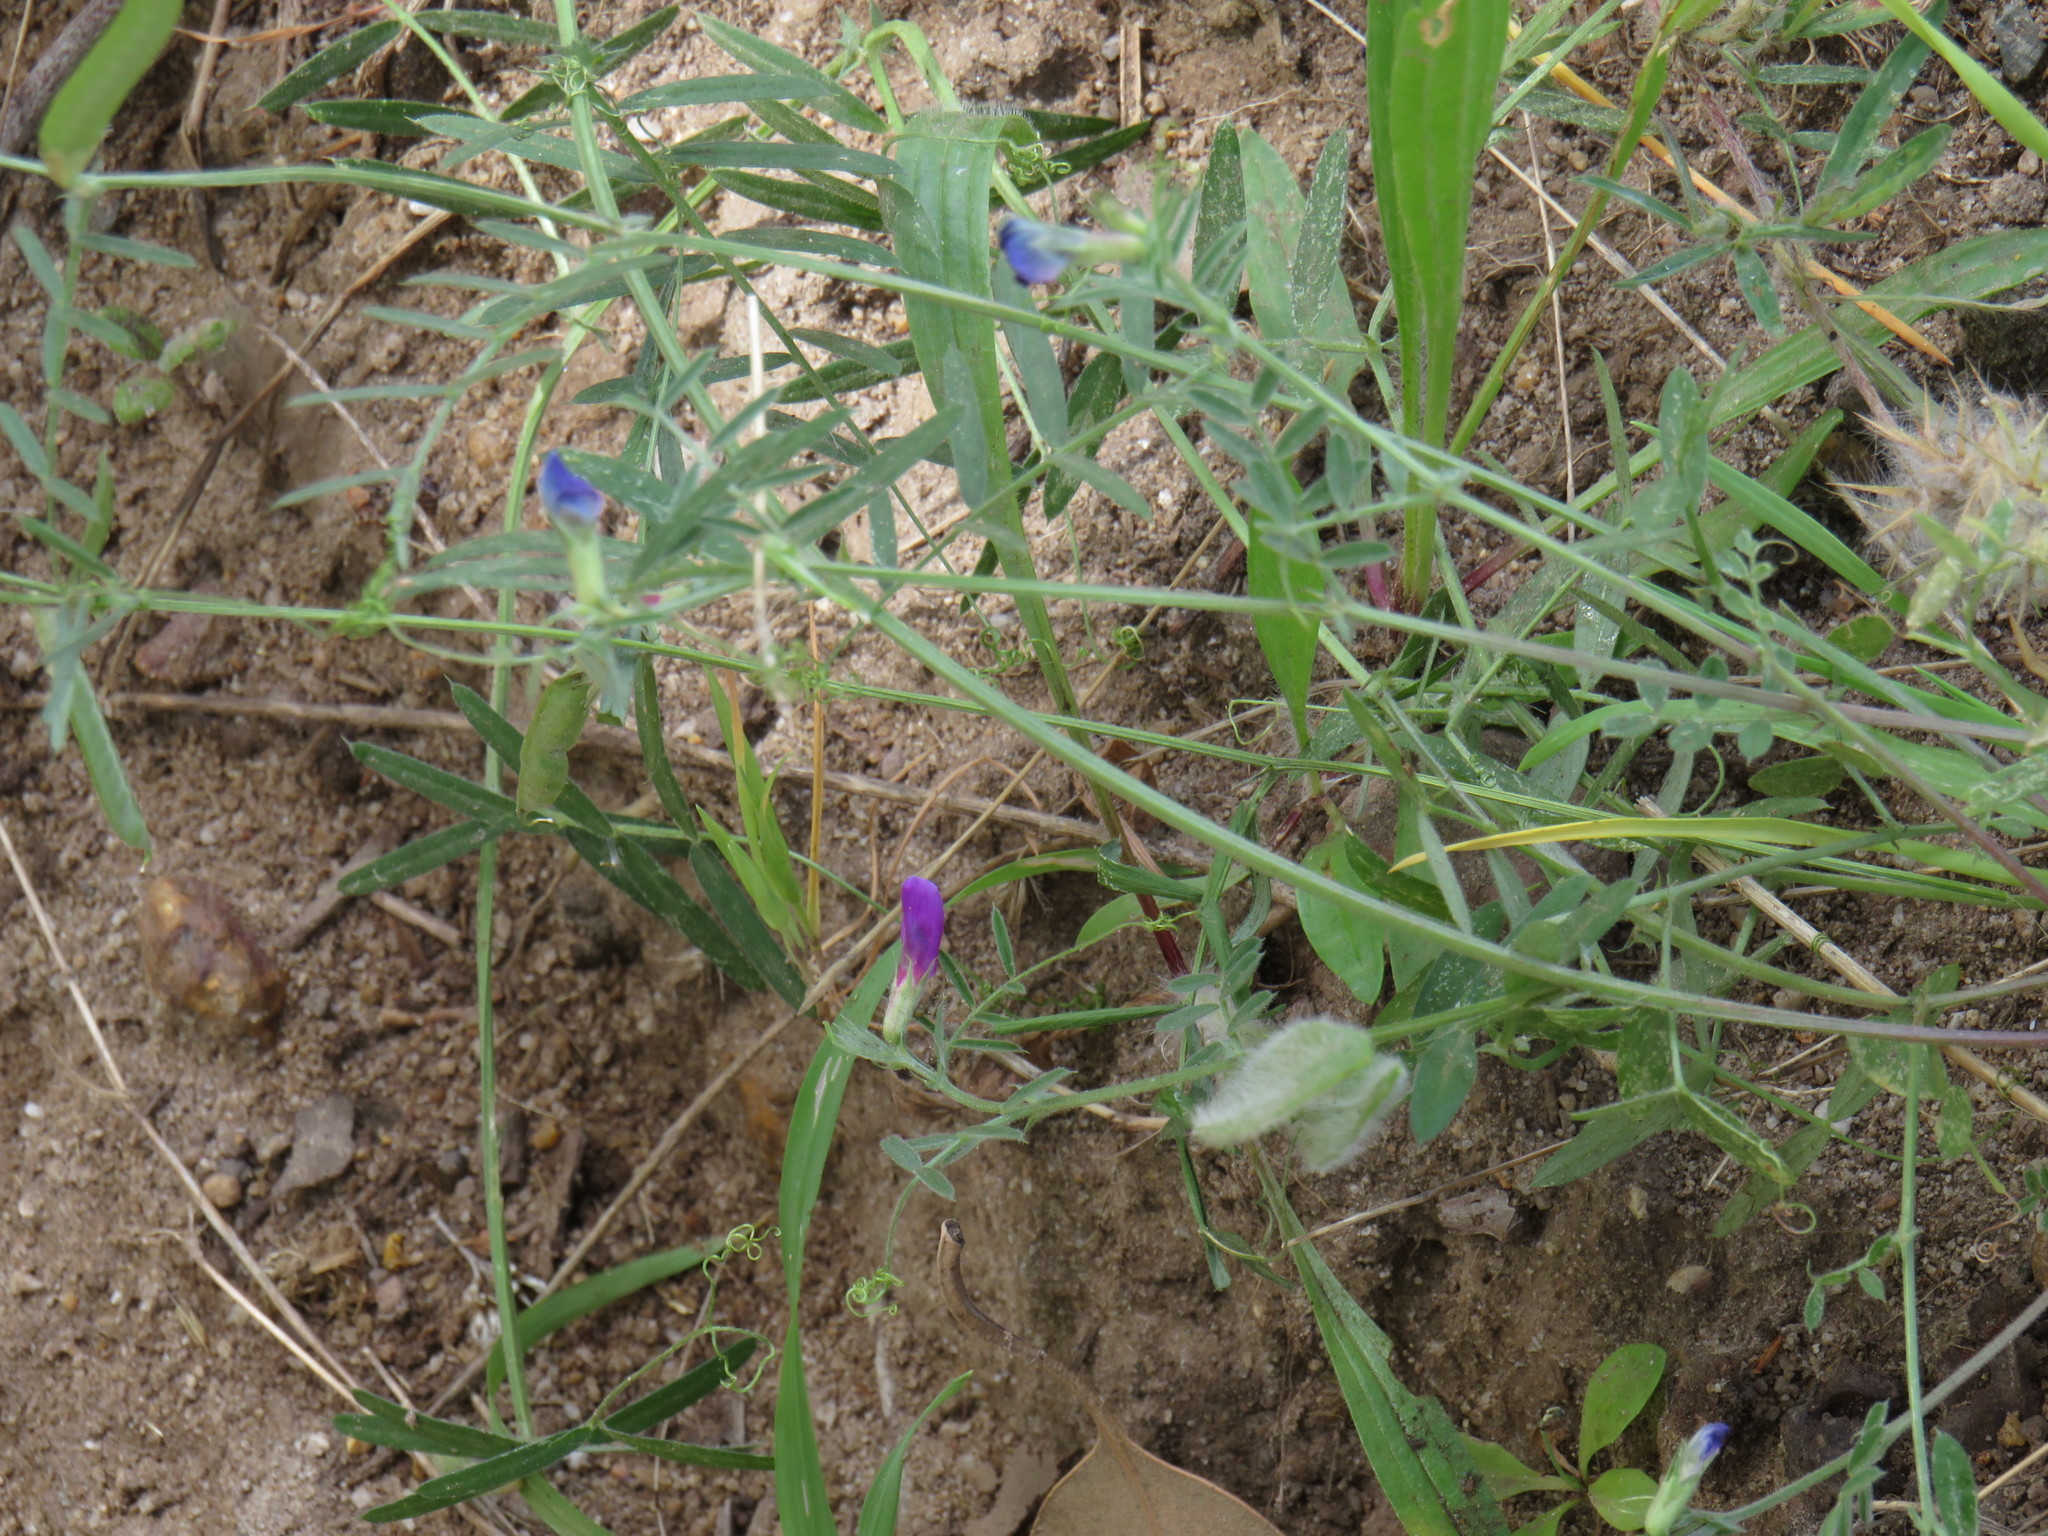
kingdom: Plantae
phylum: Tracheophyta
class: Magnoliopsida
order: Fabales
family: Fabaceae
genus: Vicia
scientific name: Vicia sativa
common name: Garden vetch
